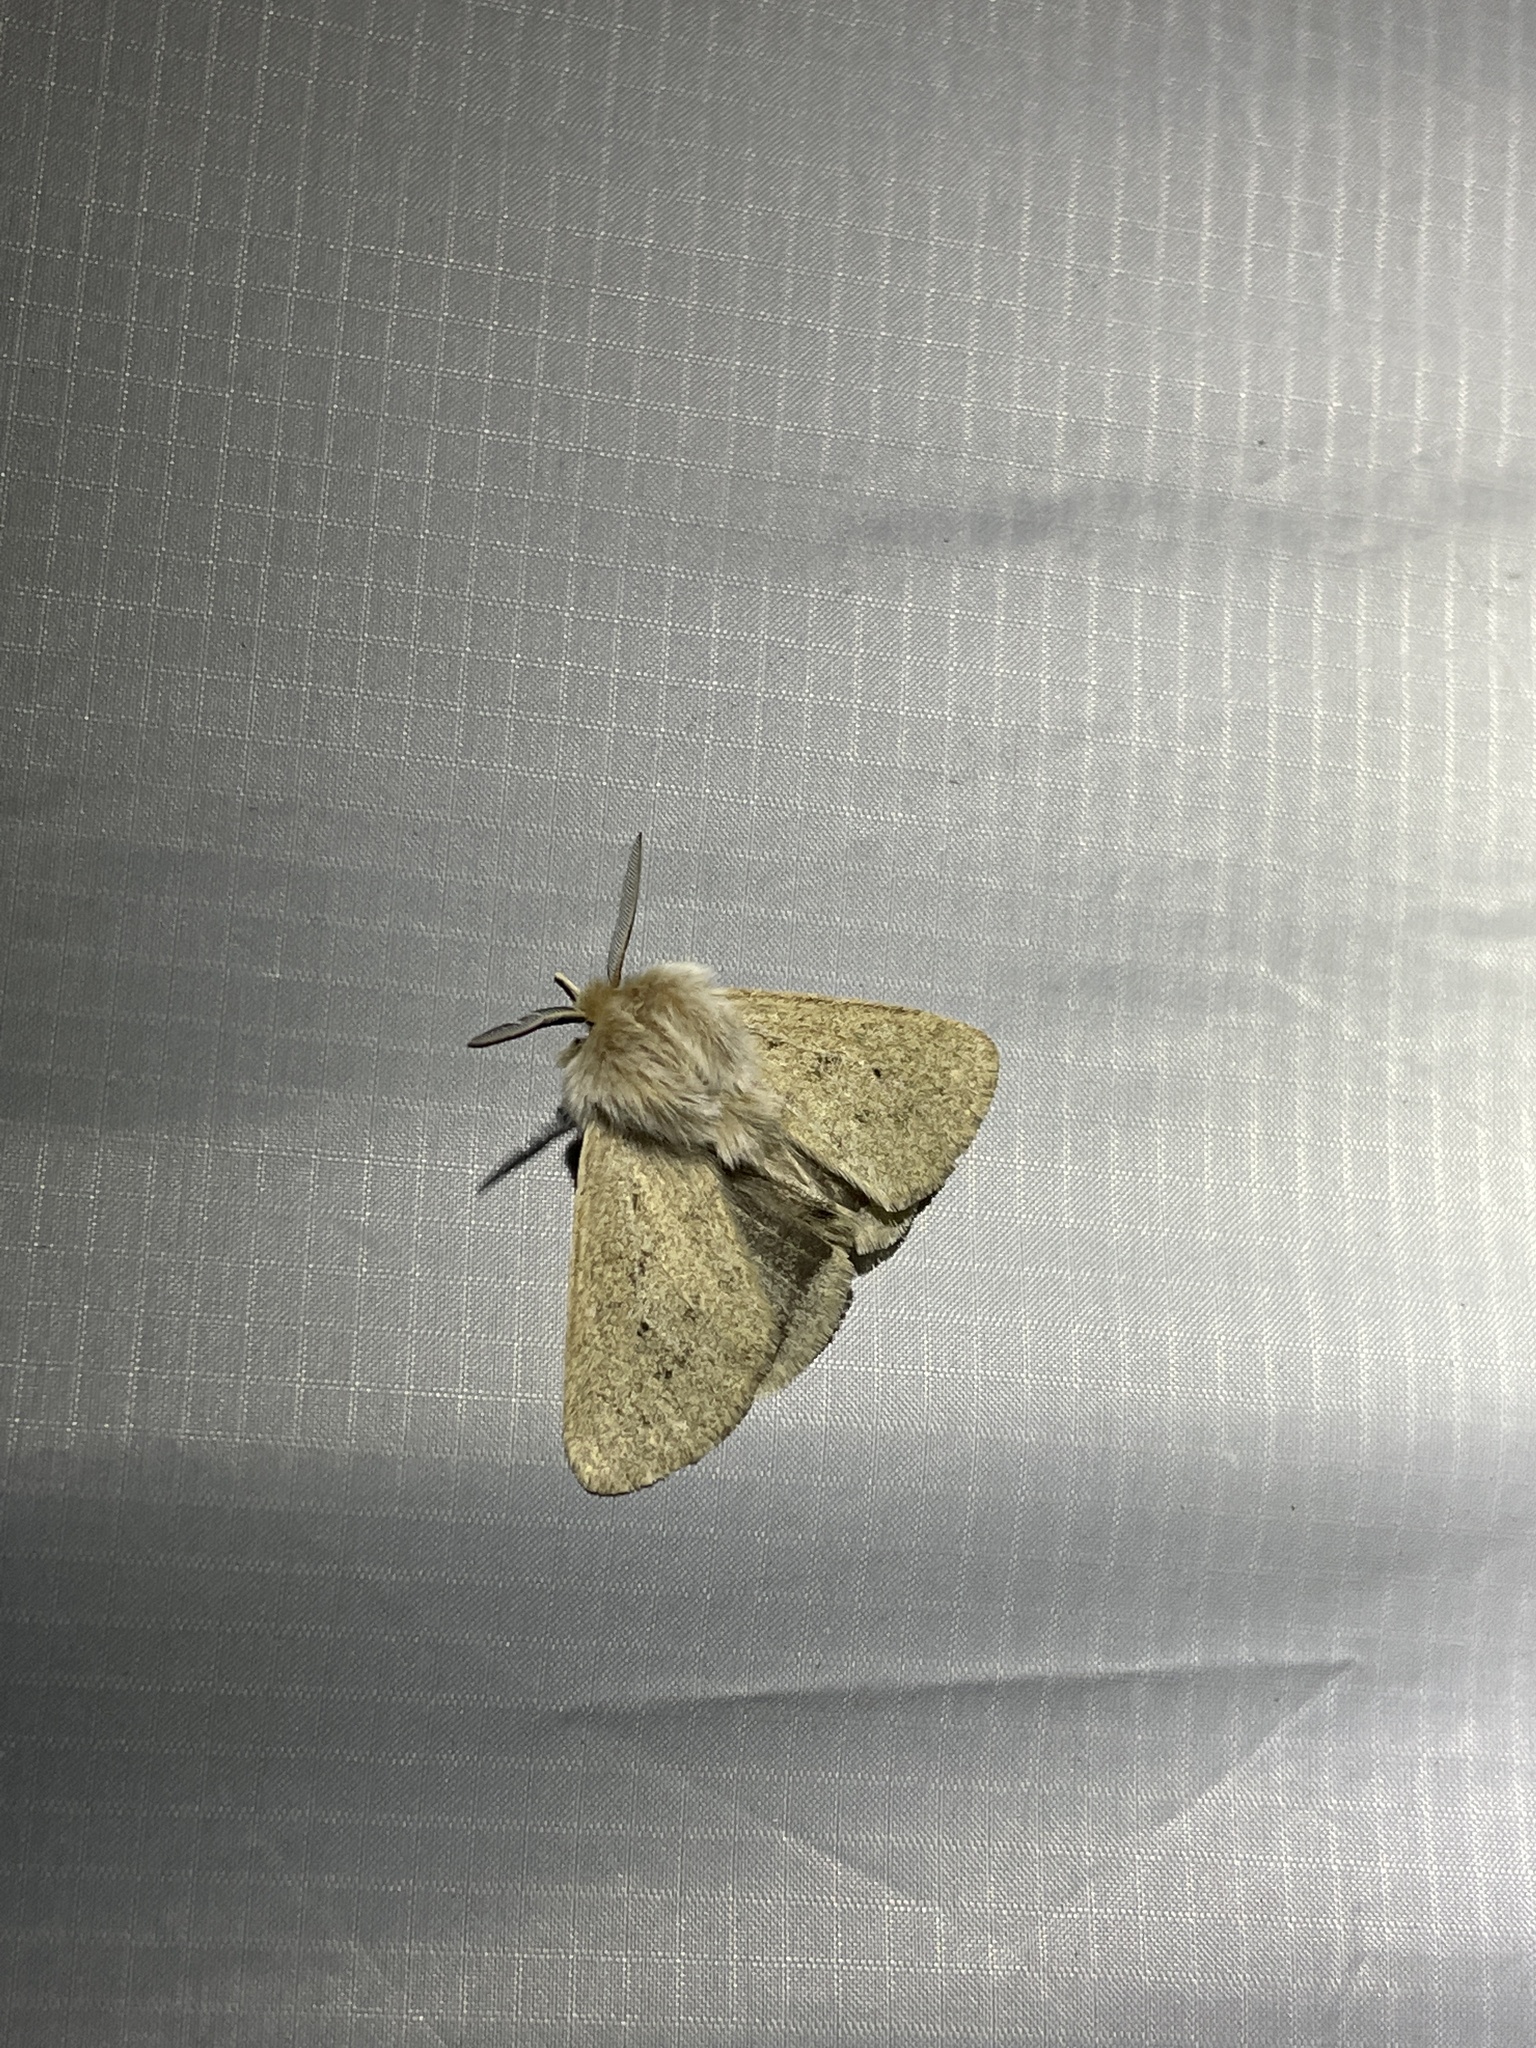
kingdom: Animalia
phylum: Arthropoda
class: Insecta
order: Lepidoptera
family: Erebidae
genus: Spilosoma
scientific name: Spilosoma vagans
